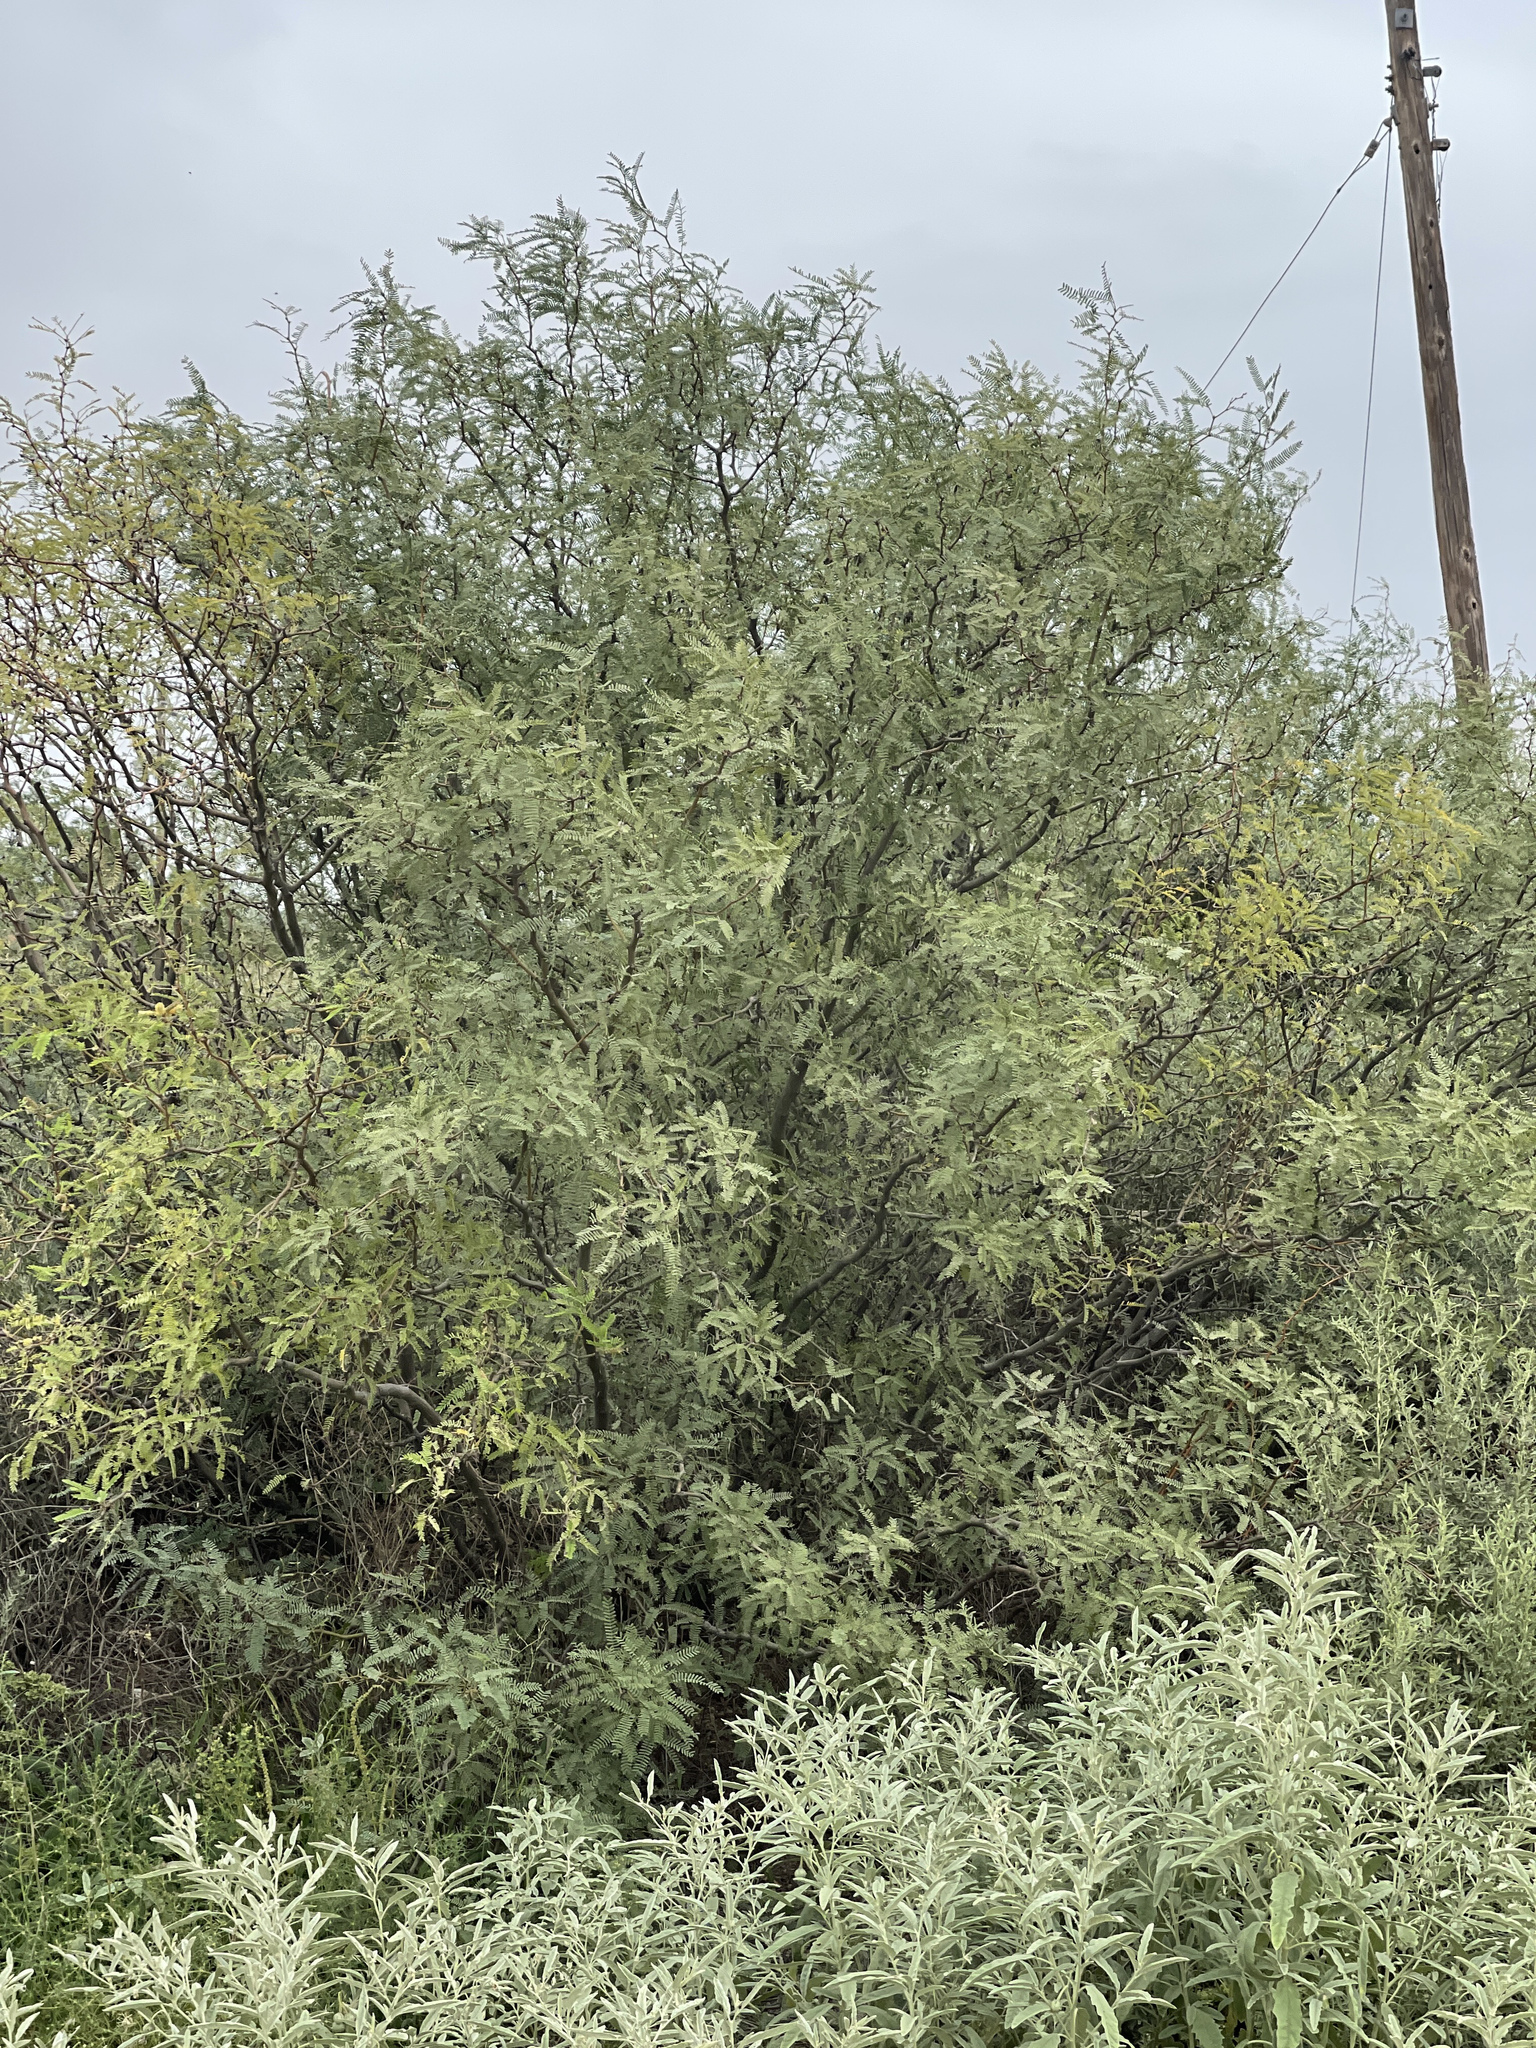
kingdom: Plantae
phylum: Tracheophyta
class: Magnoliopsida
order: Fabales
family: Fabaceae
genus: Prosopis
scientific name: Prosopis velutina
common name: Velvet mesquite
